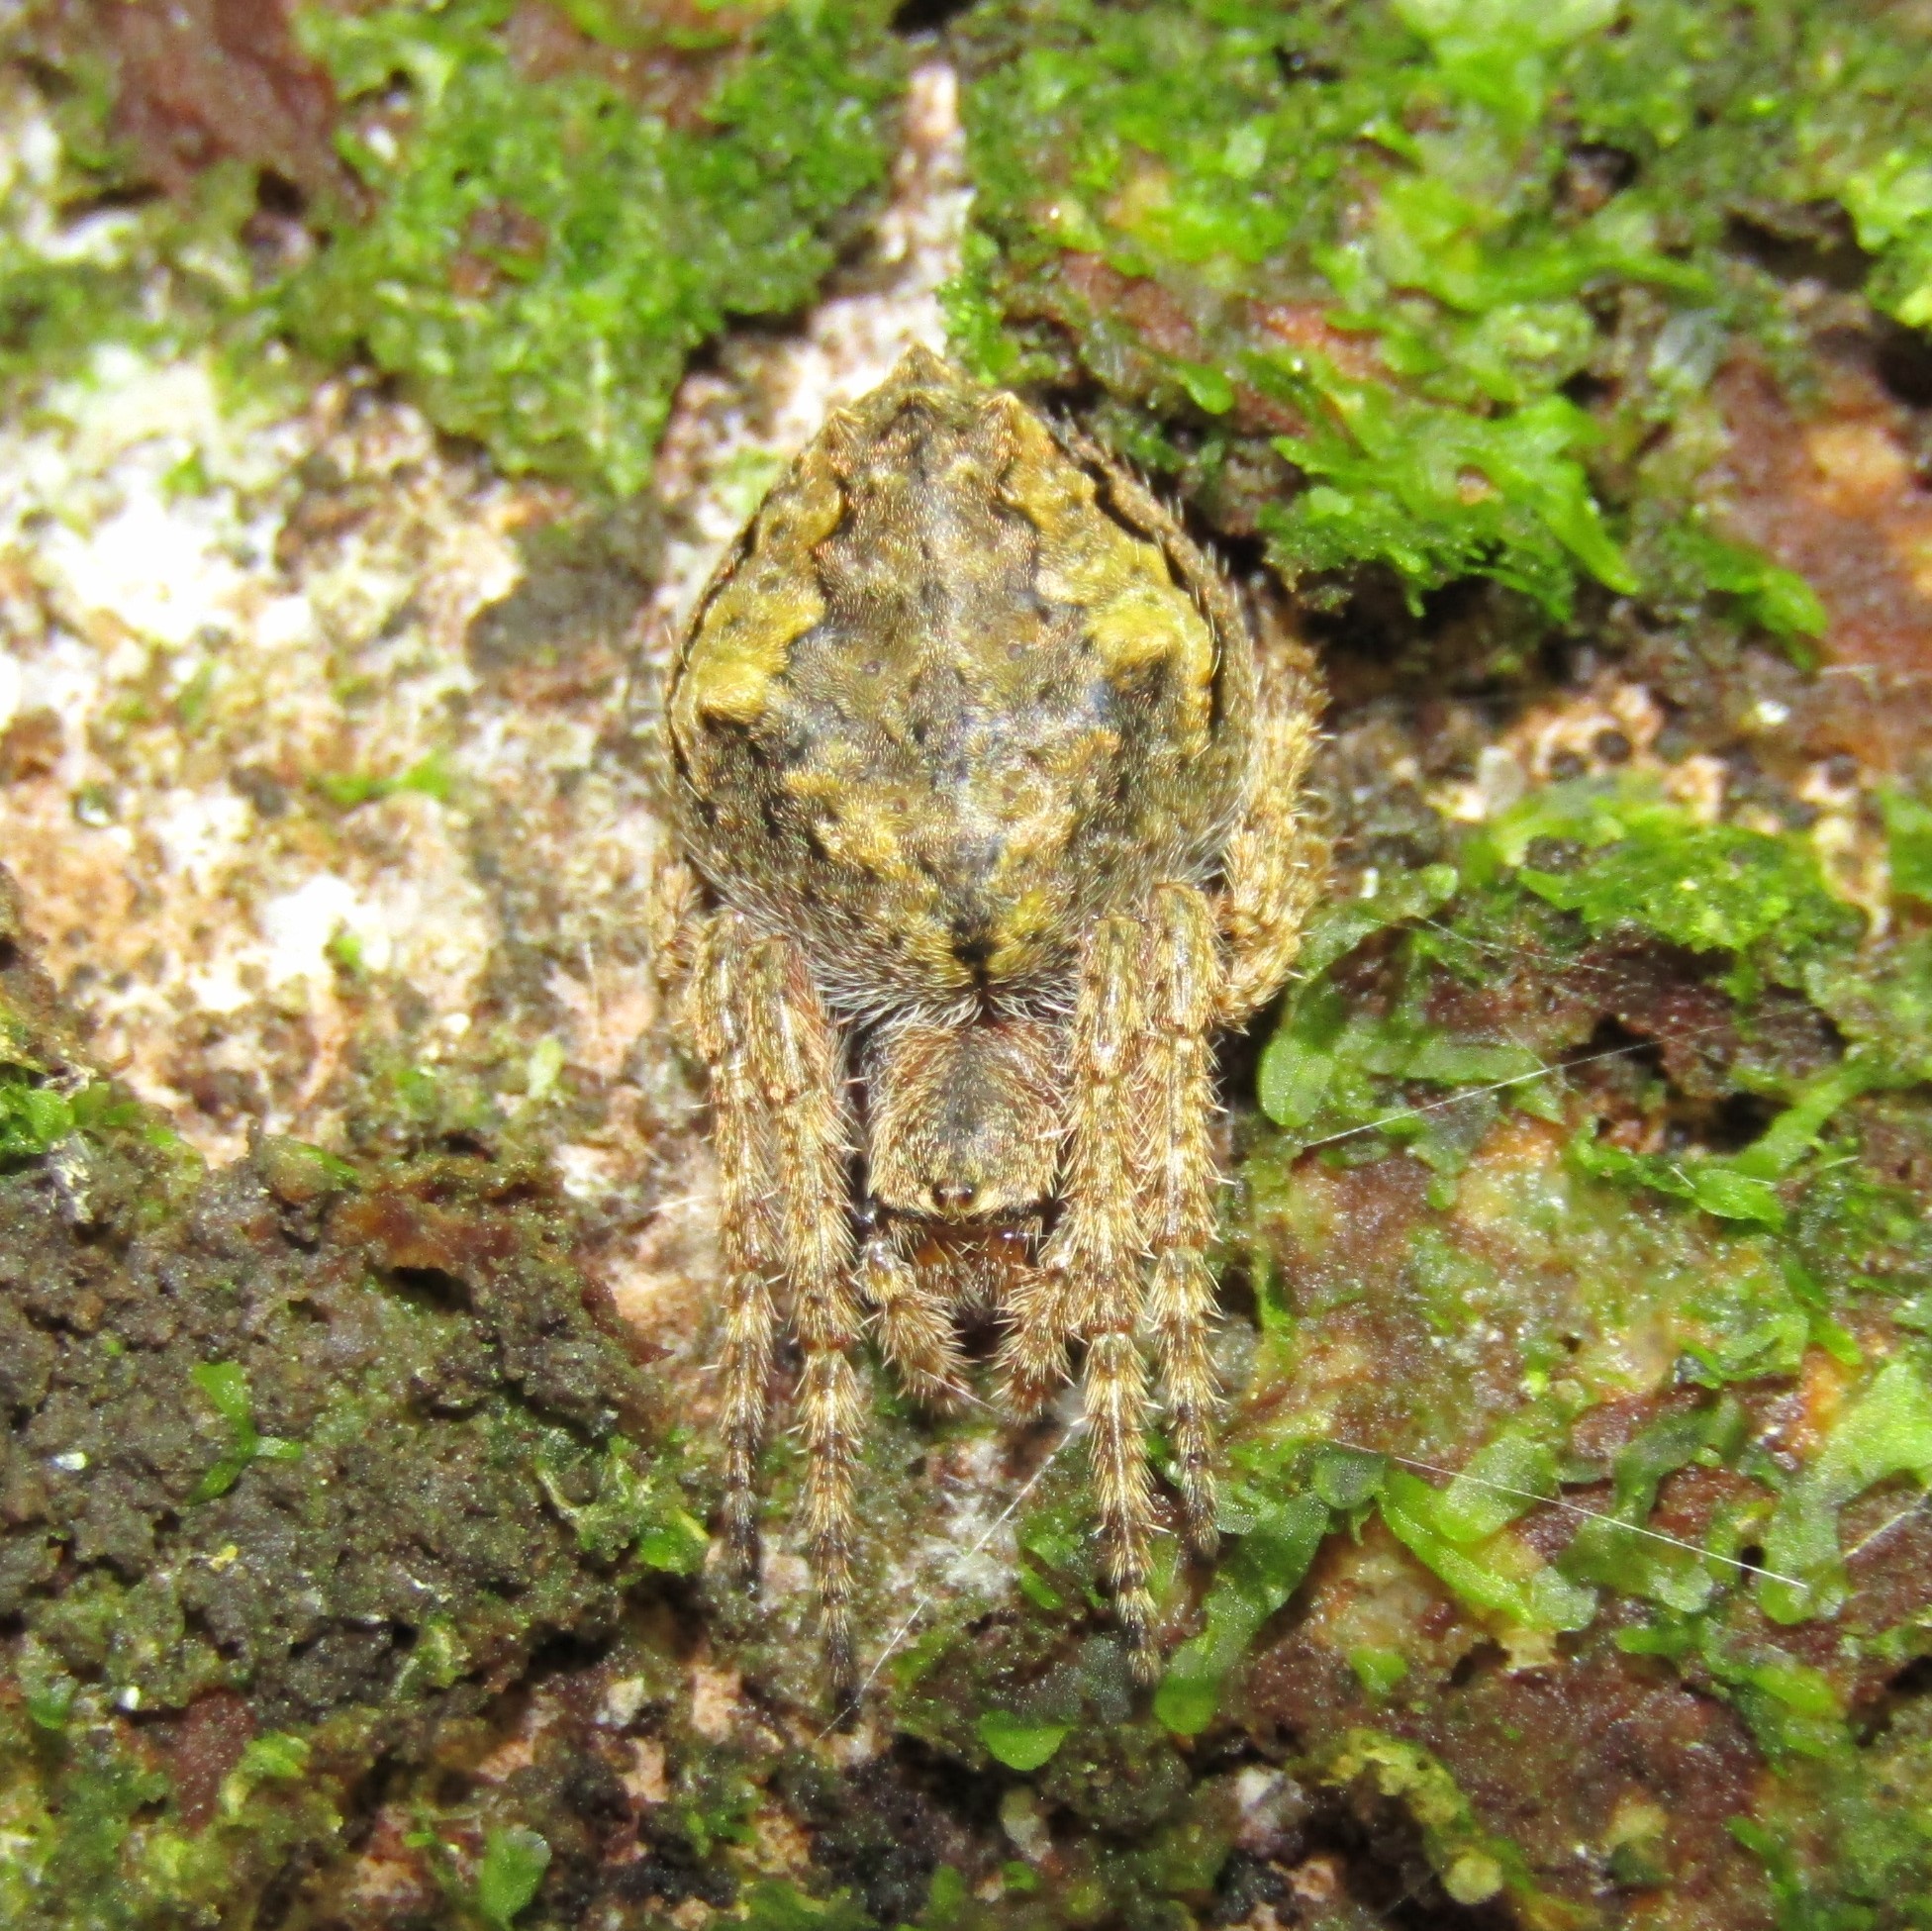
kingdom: Animalia
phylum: Arthropoda
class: Arachnida
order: Araneae
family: Araneidae
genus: Eriophora
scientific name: Eriophora pustulosa
